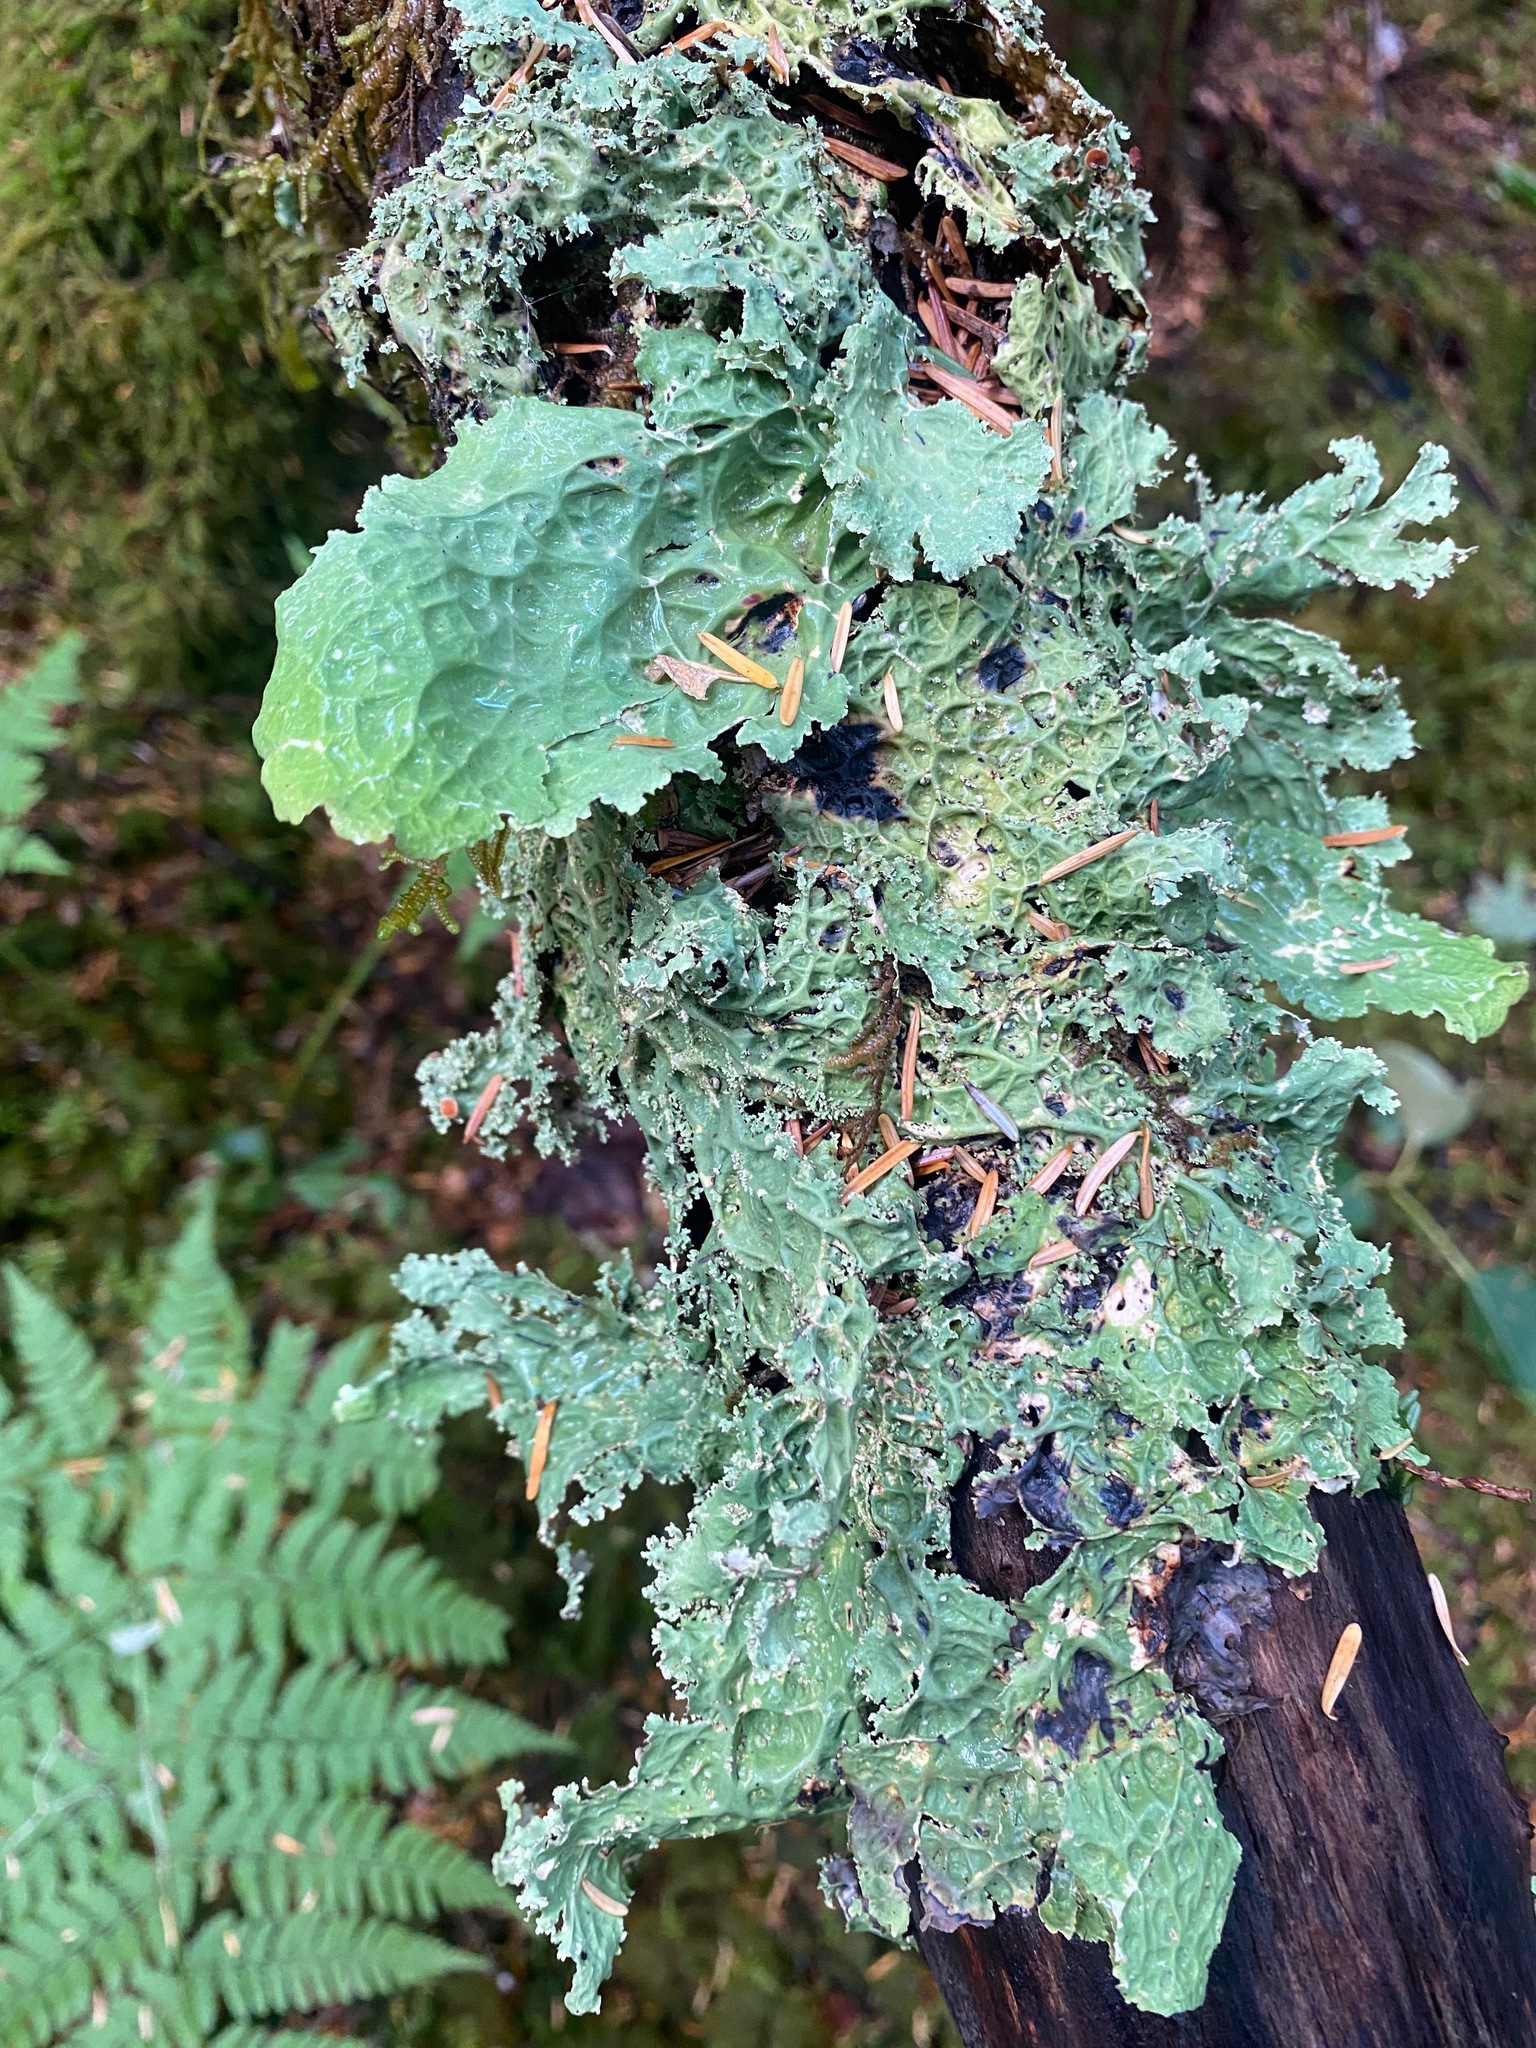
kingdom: Fungi
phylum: Ascomycota
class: Lecanoromycetes
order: Peltigerales
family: Lobariaceae
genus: Lobaria
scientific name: Lobaria oregana
